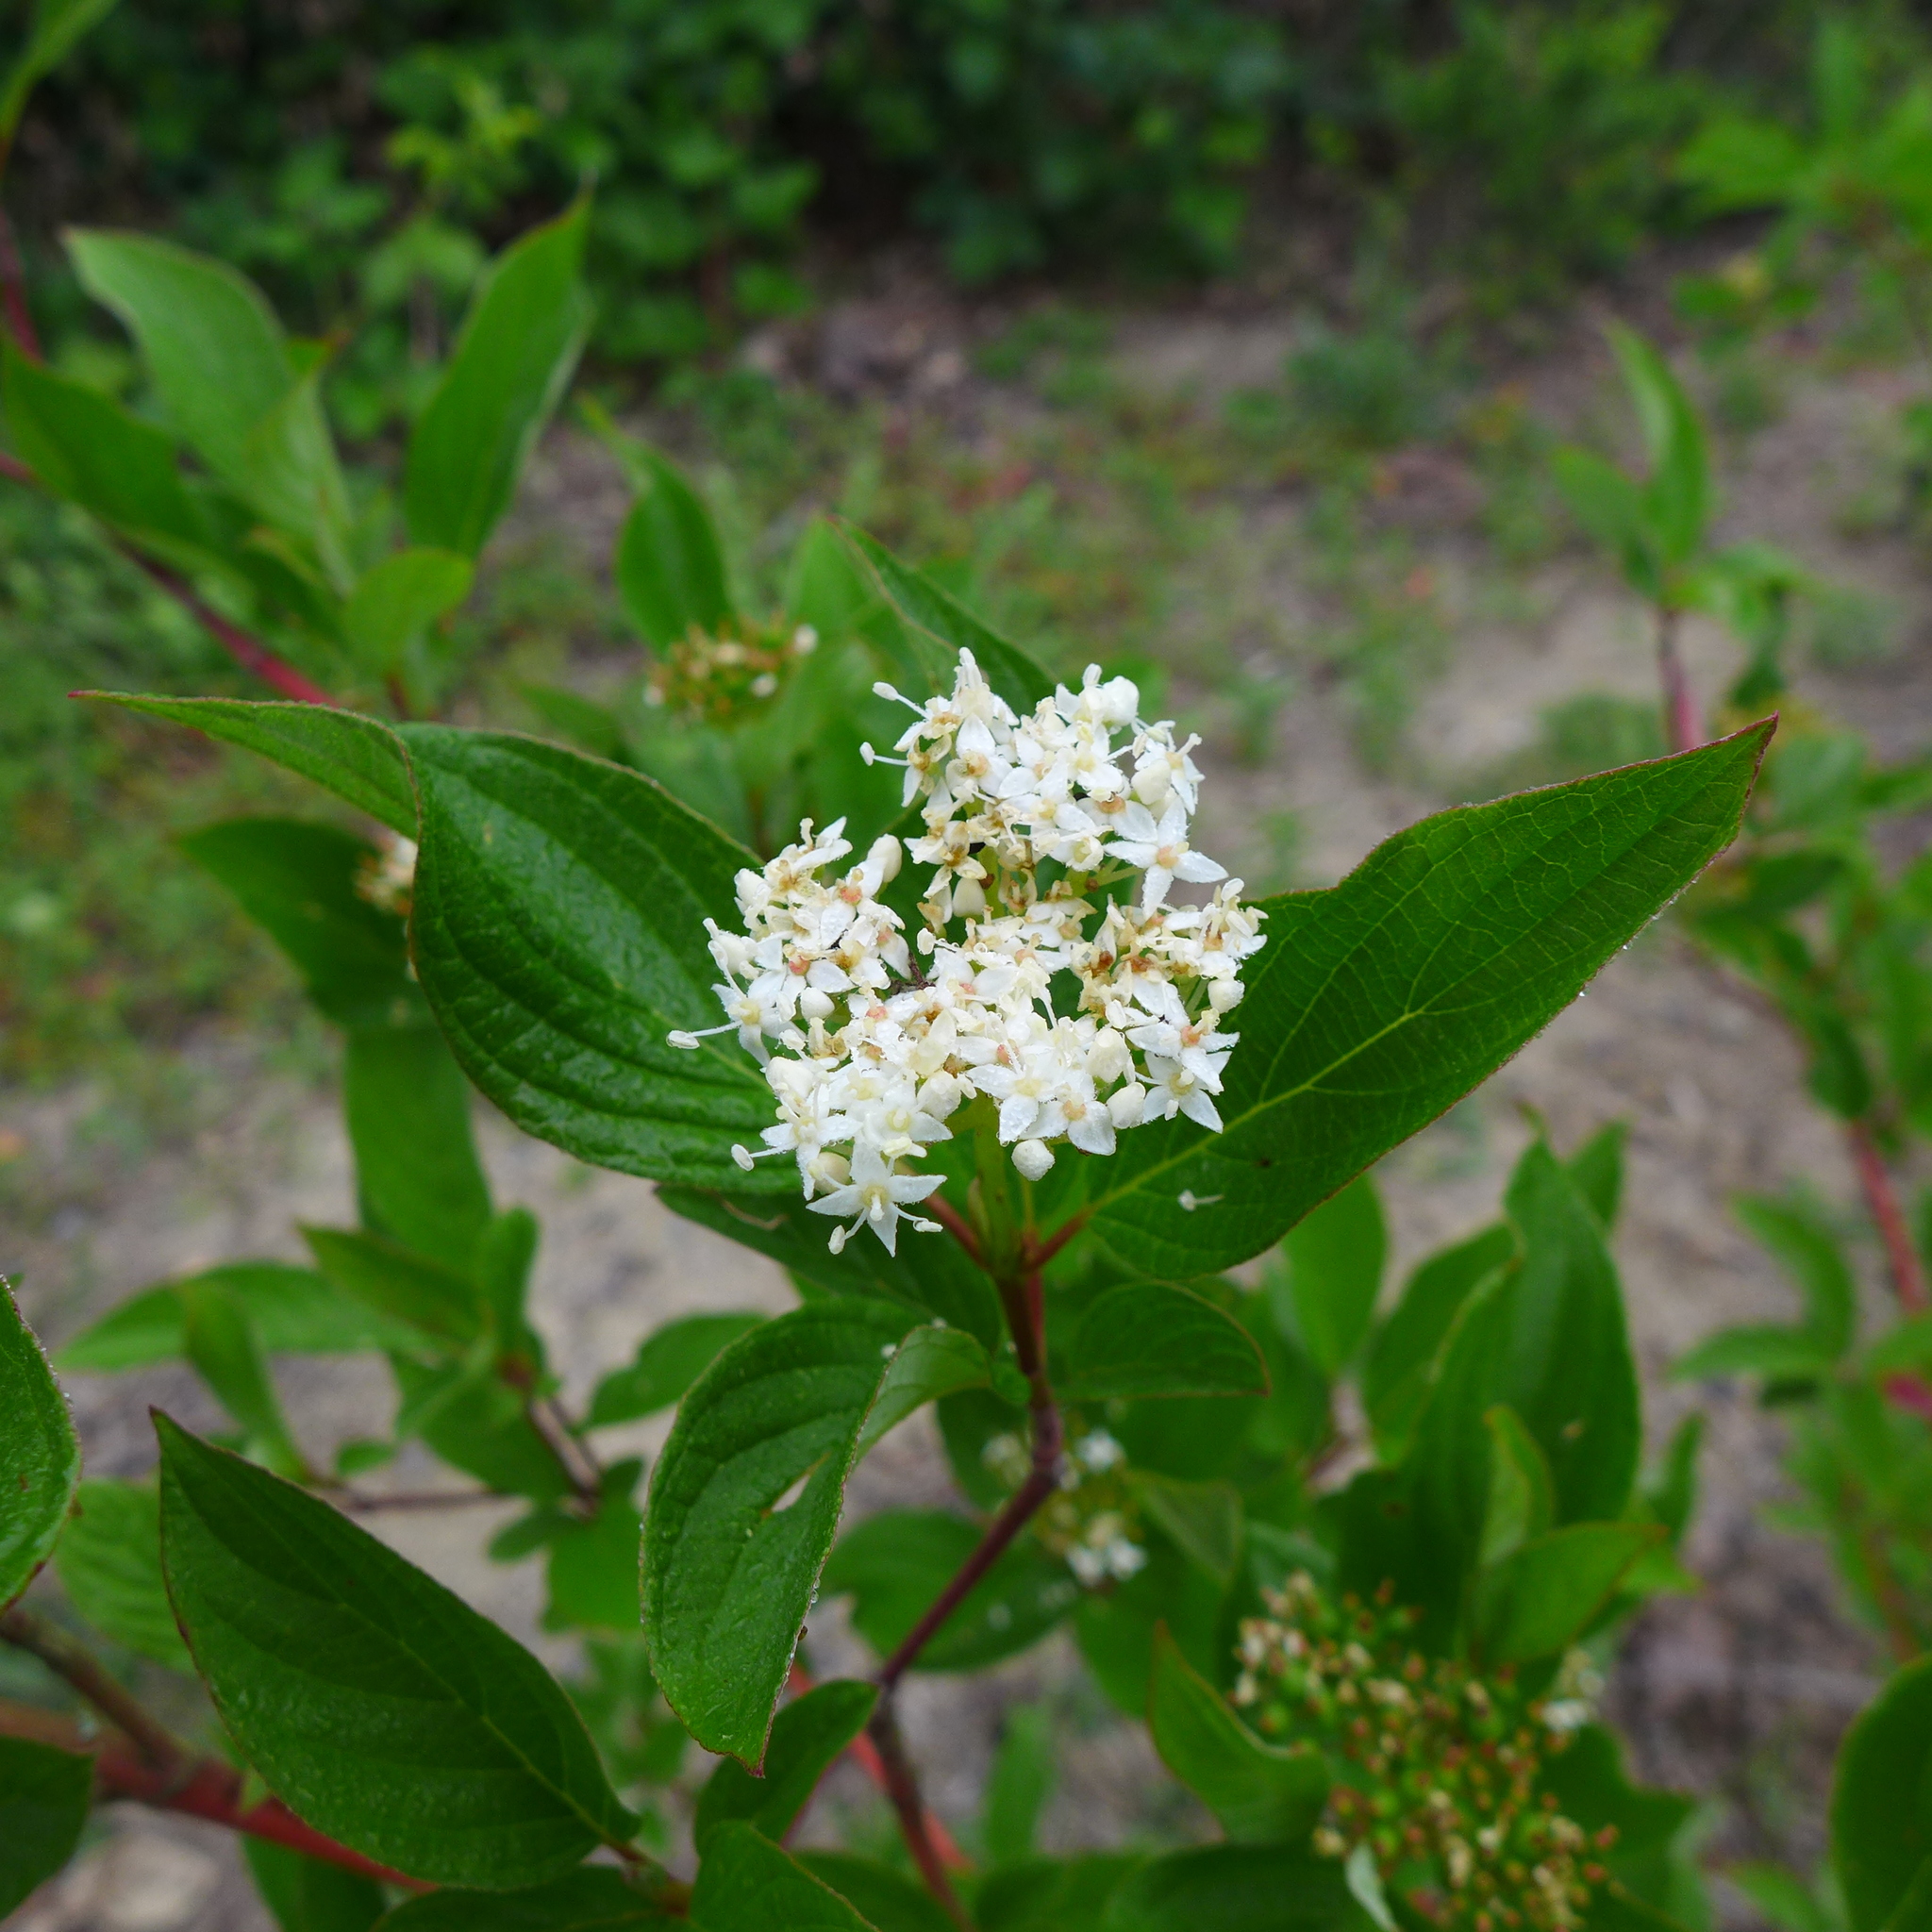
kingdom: Plantae
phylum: Tracheophyta
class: Magnoliopsida
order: Cornales
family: Cornaceae
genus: Cornus
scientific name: Cornus sericea
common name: Red-osier dogwood
